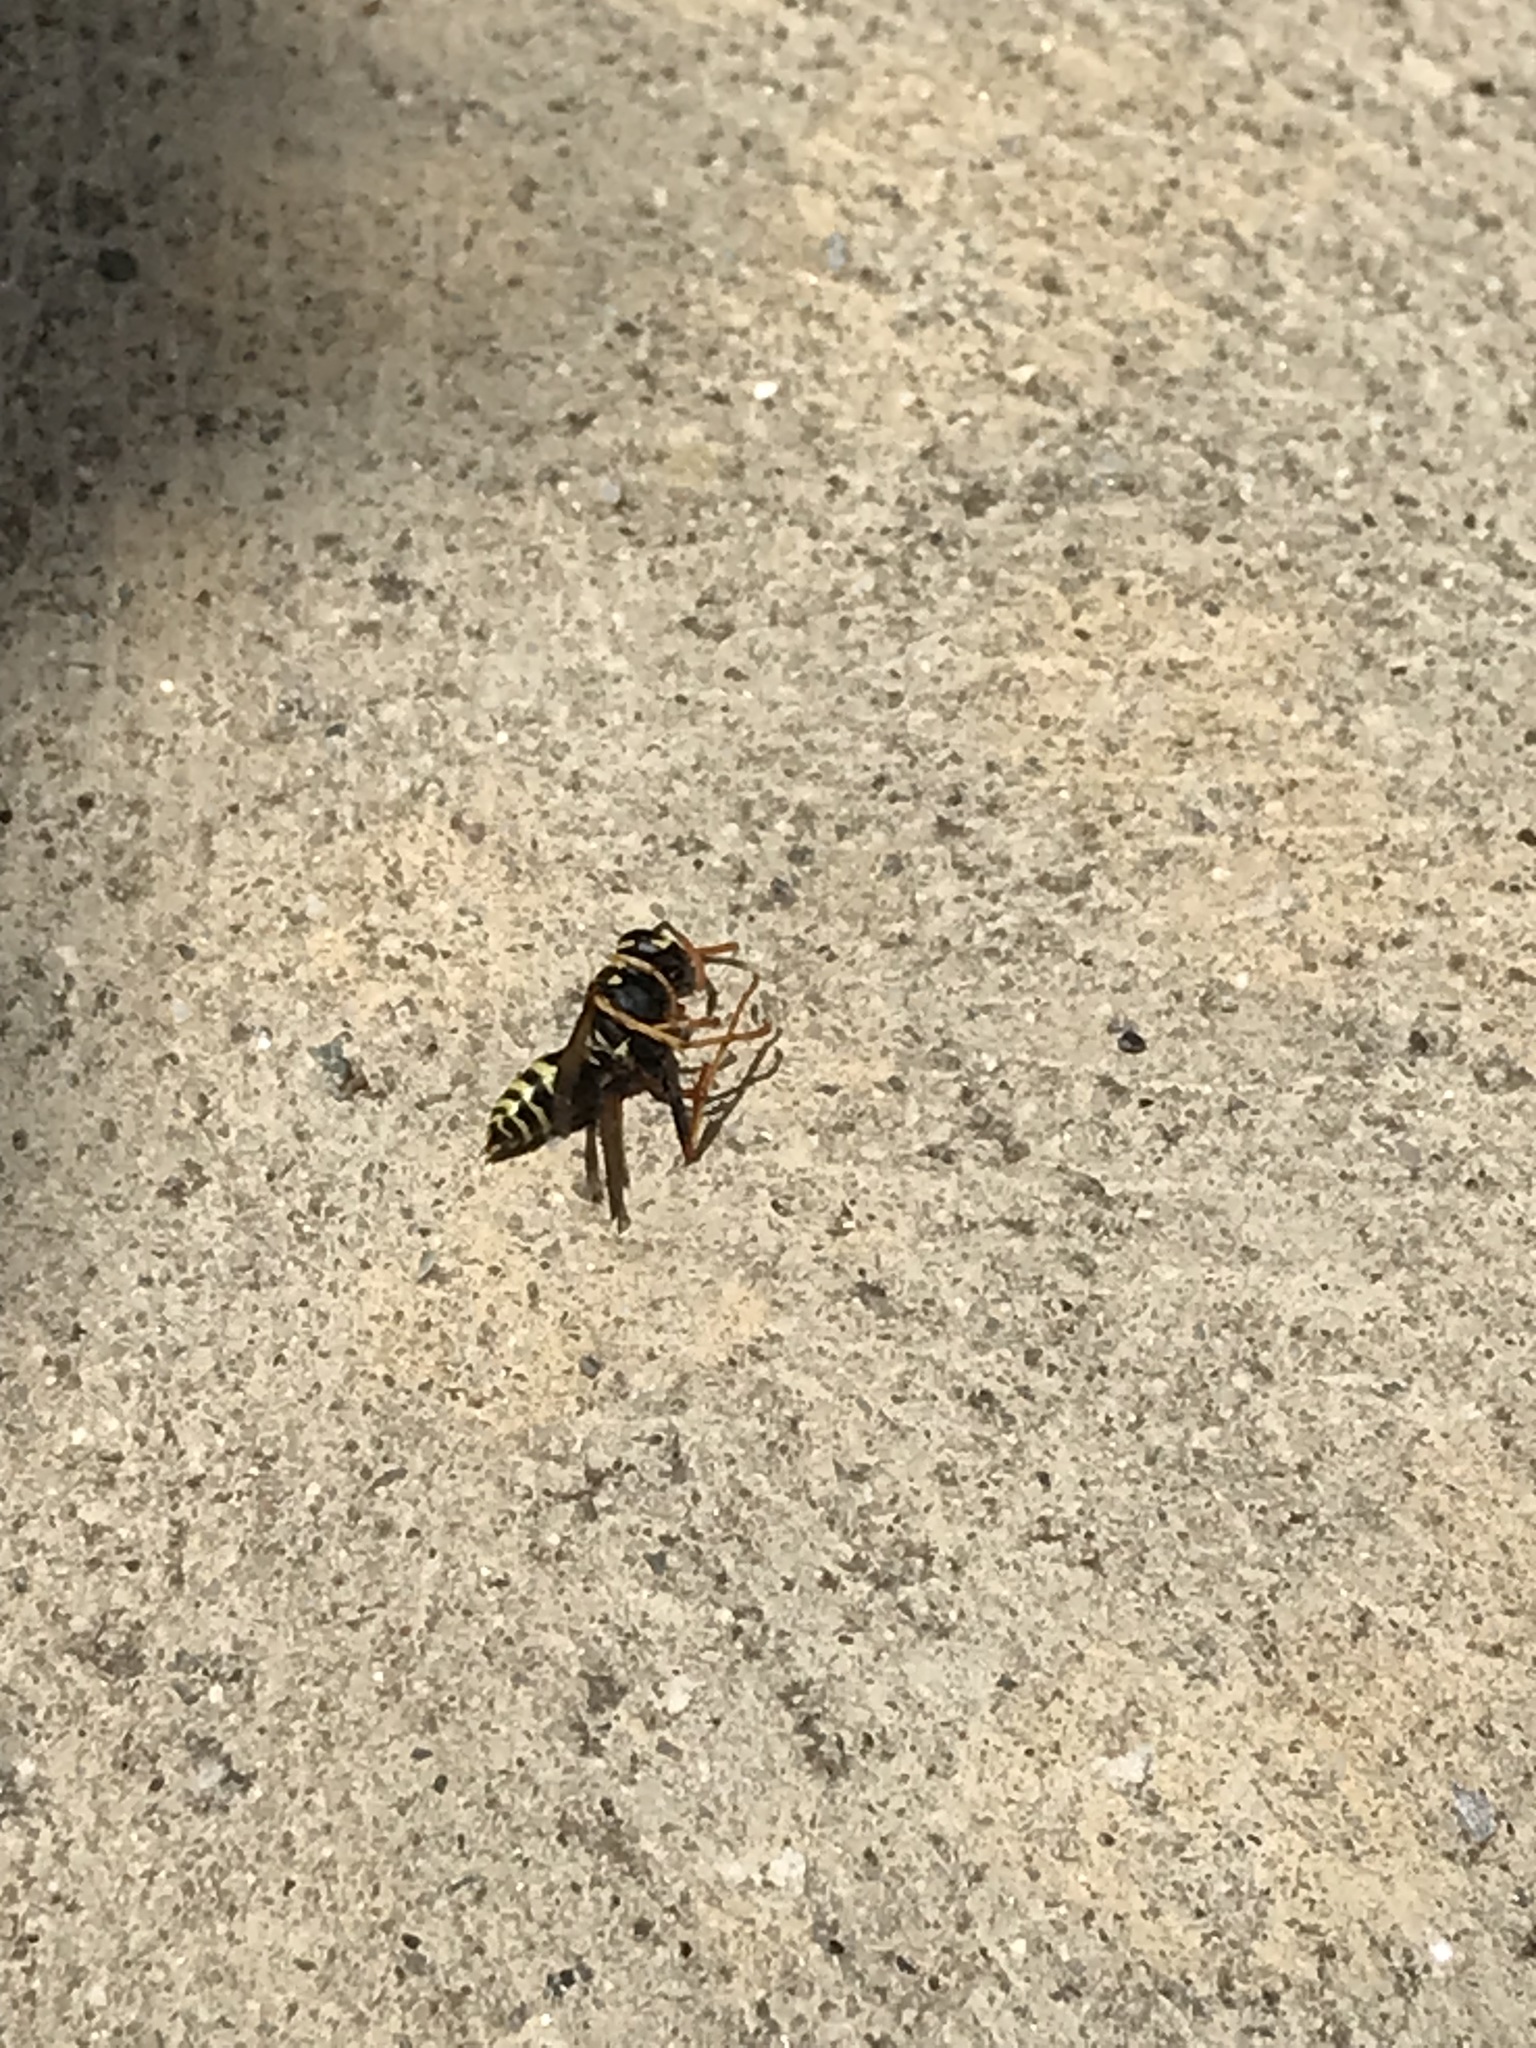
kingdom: Animalia
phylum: Arthropoda
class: Insecta
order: Hymenoptera
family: Eumenidae
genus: Polistes
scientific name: Polistes dominula
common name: Paper wasp
